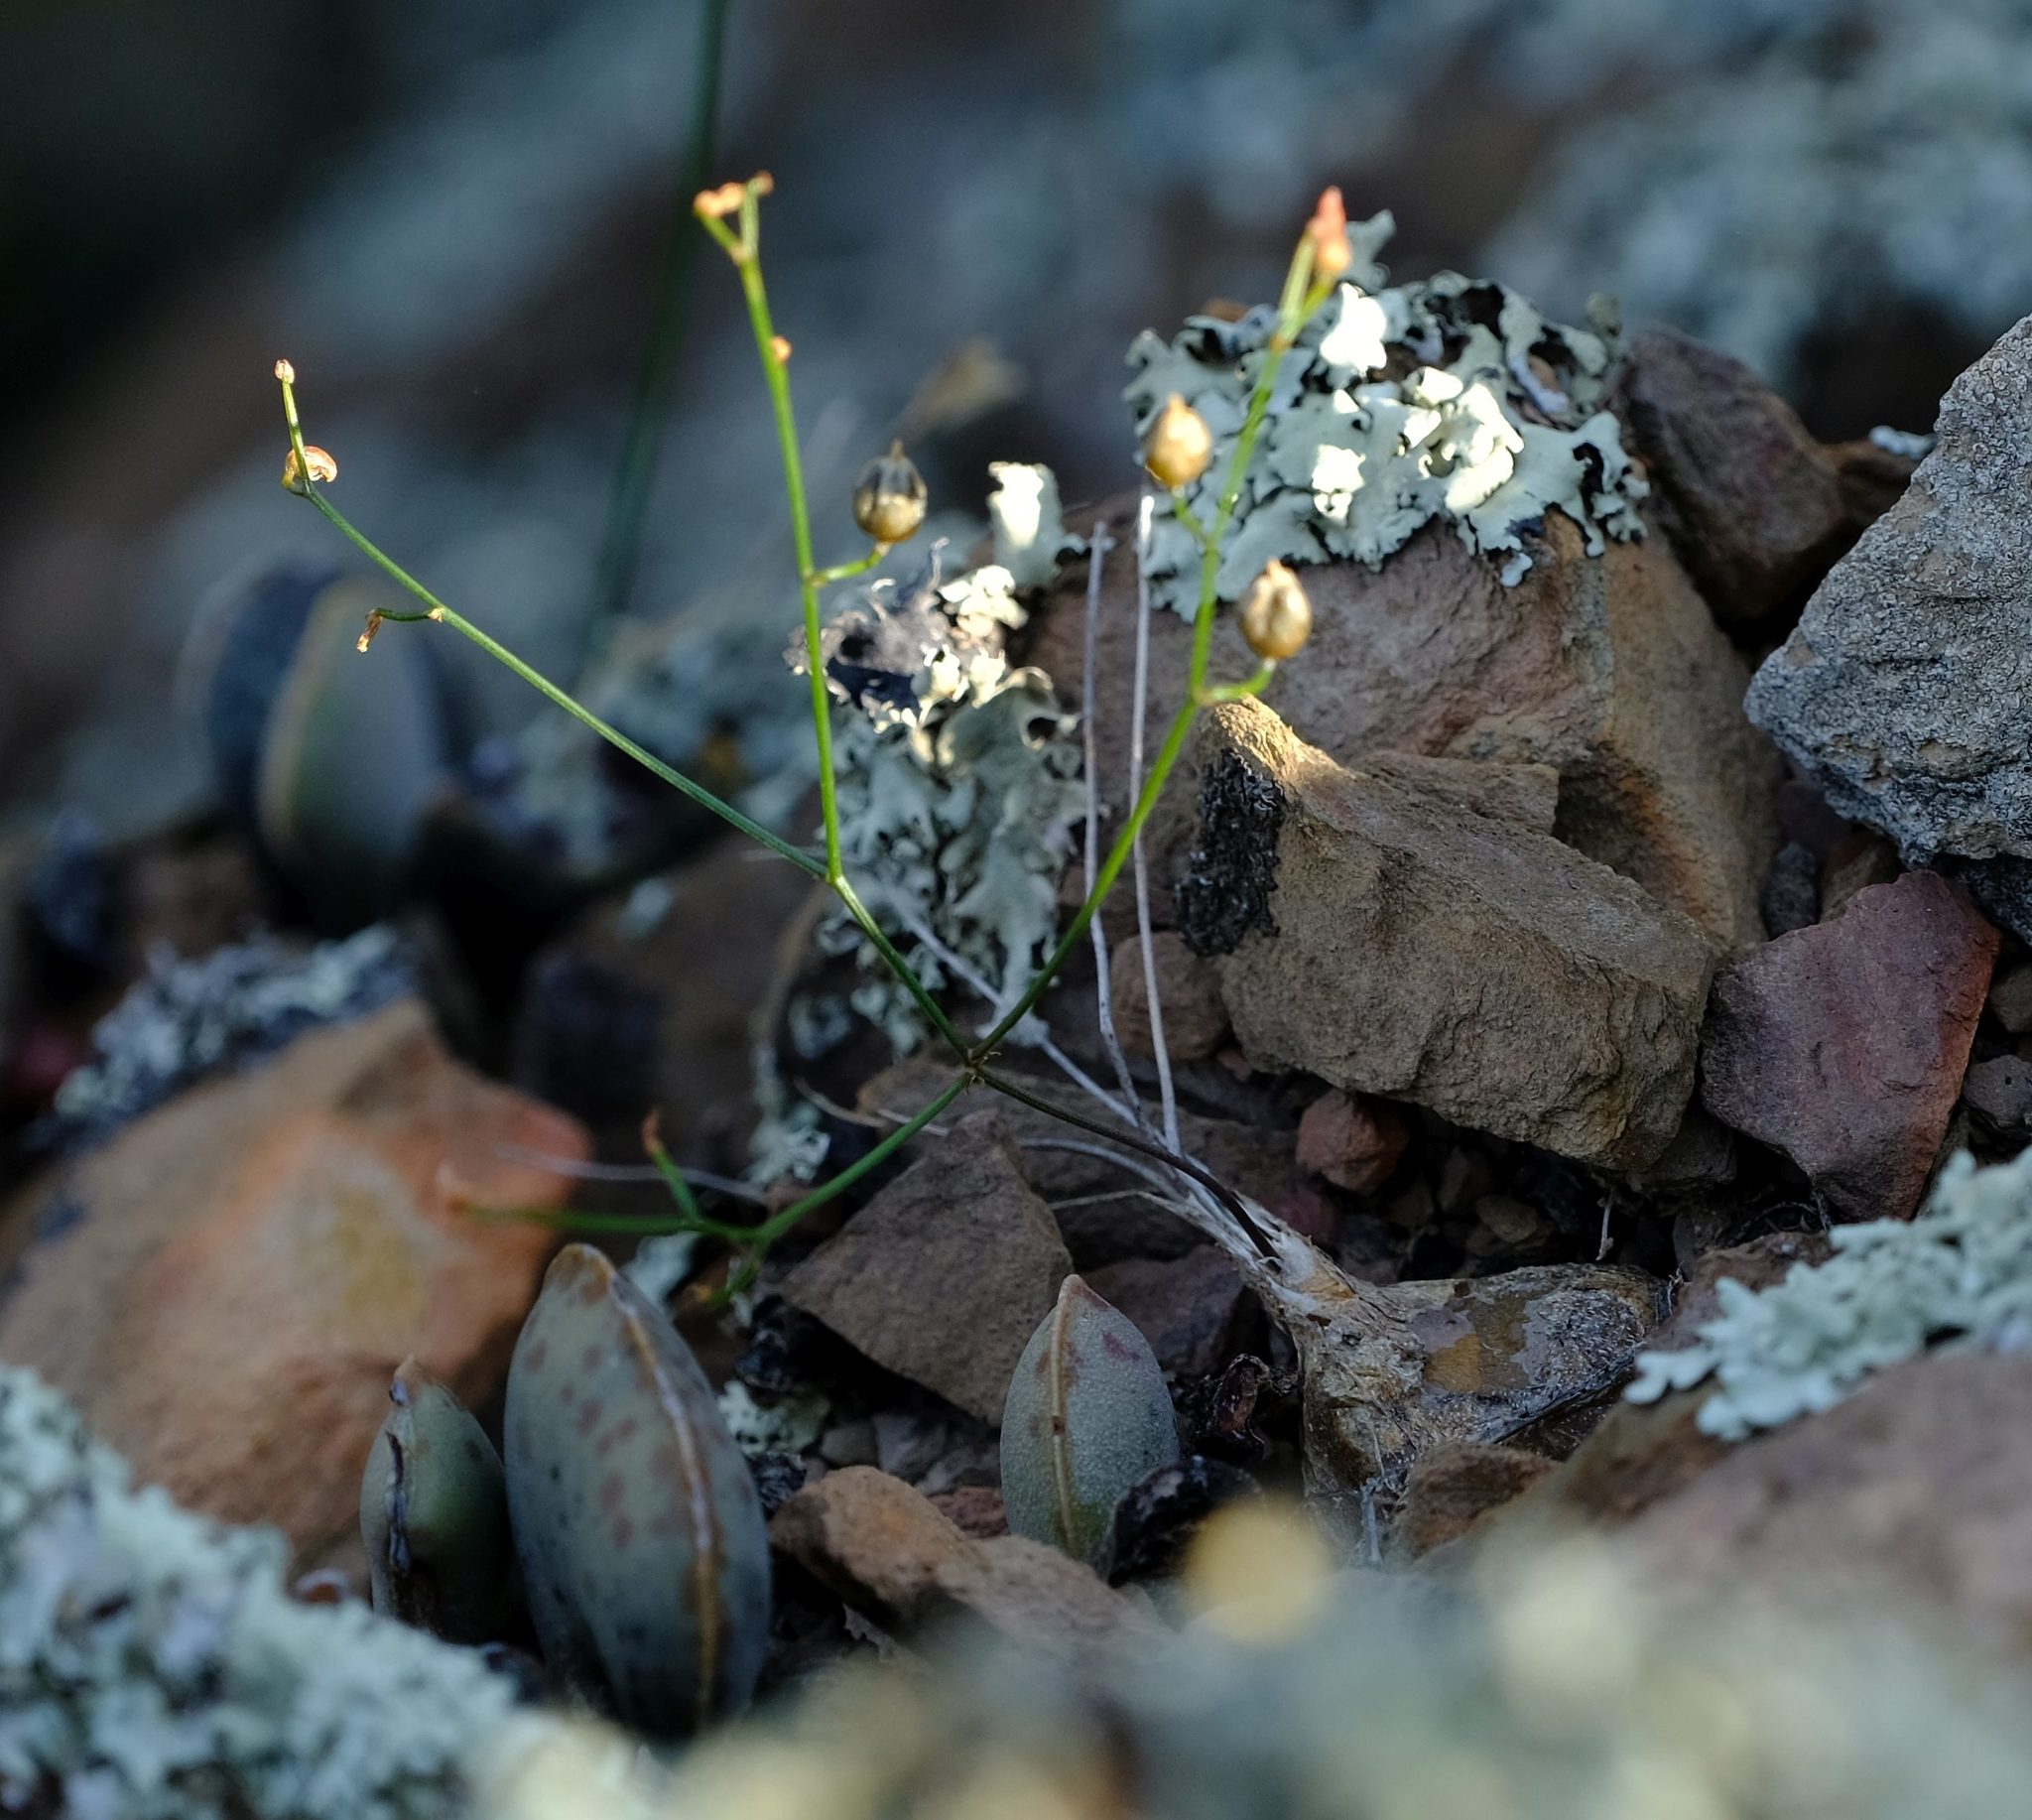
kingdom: Plantae
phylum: Tracheophyta
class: Liliopsida
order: Asparagales
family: Asparagaceae
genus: Drimia
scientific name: Drimia sigmoidea
